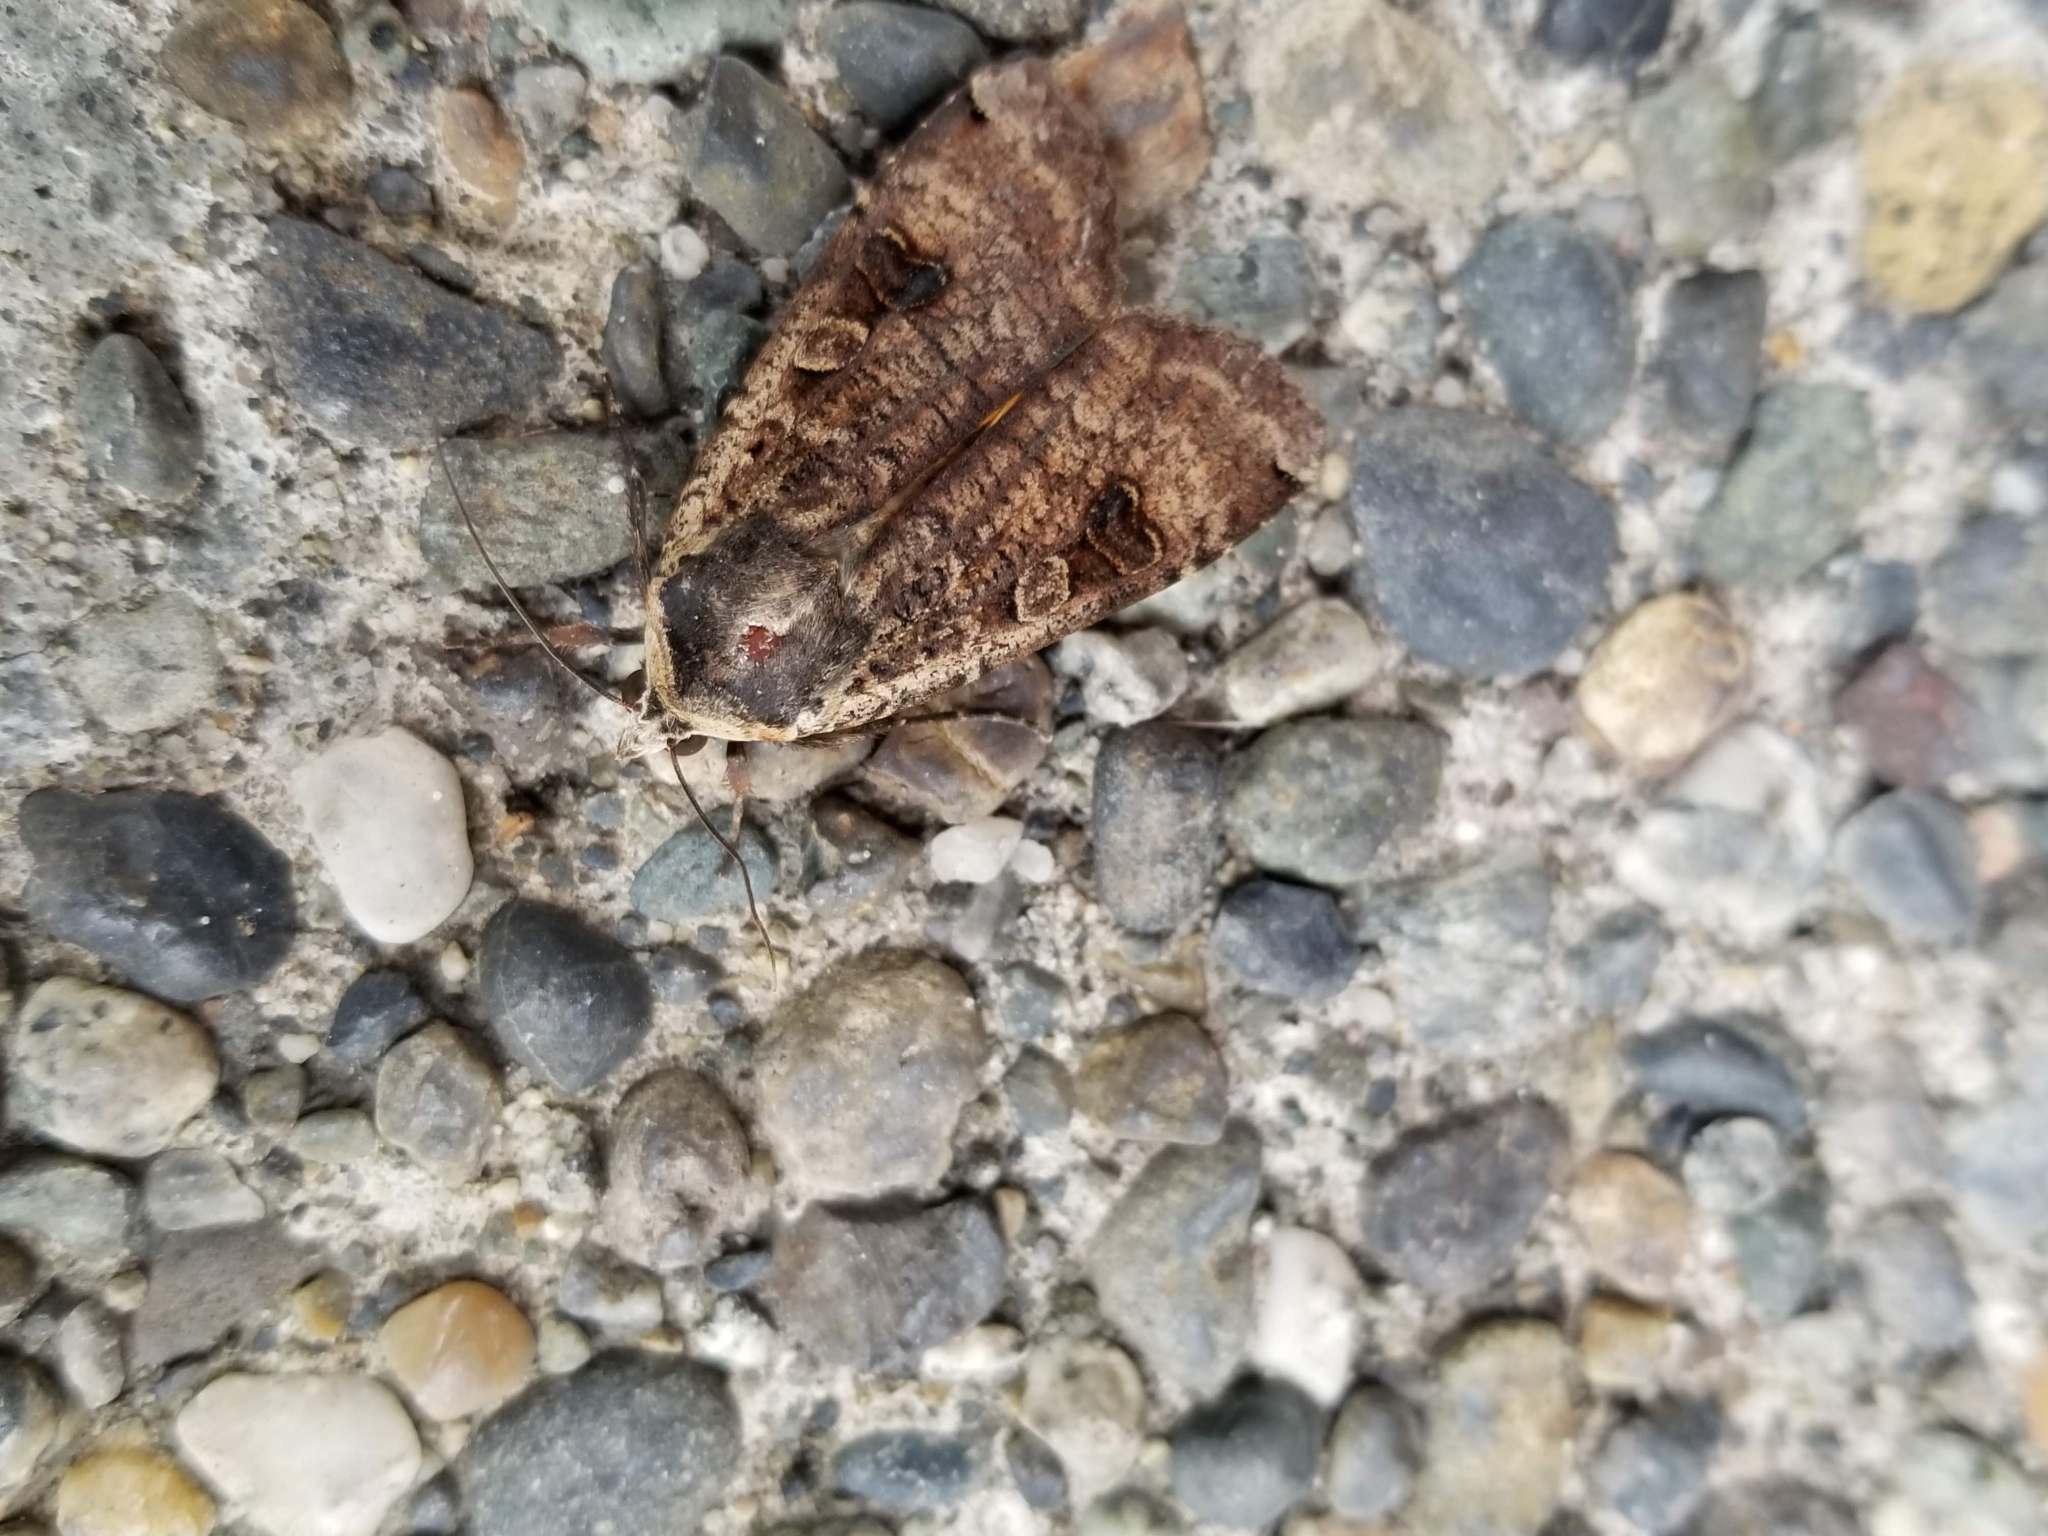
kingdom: Animalia
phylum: Arthropoda
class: Insecta
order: Lepidoptera
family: Noctuidae
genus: Noctua
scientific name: Noctua pronuba
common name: Large yellow underwing
